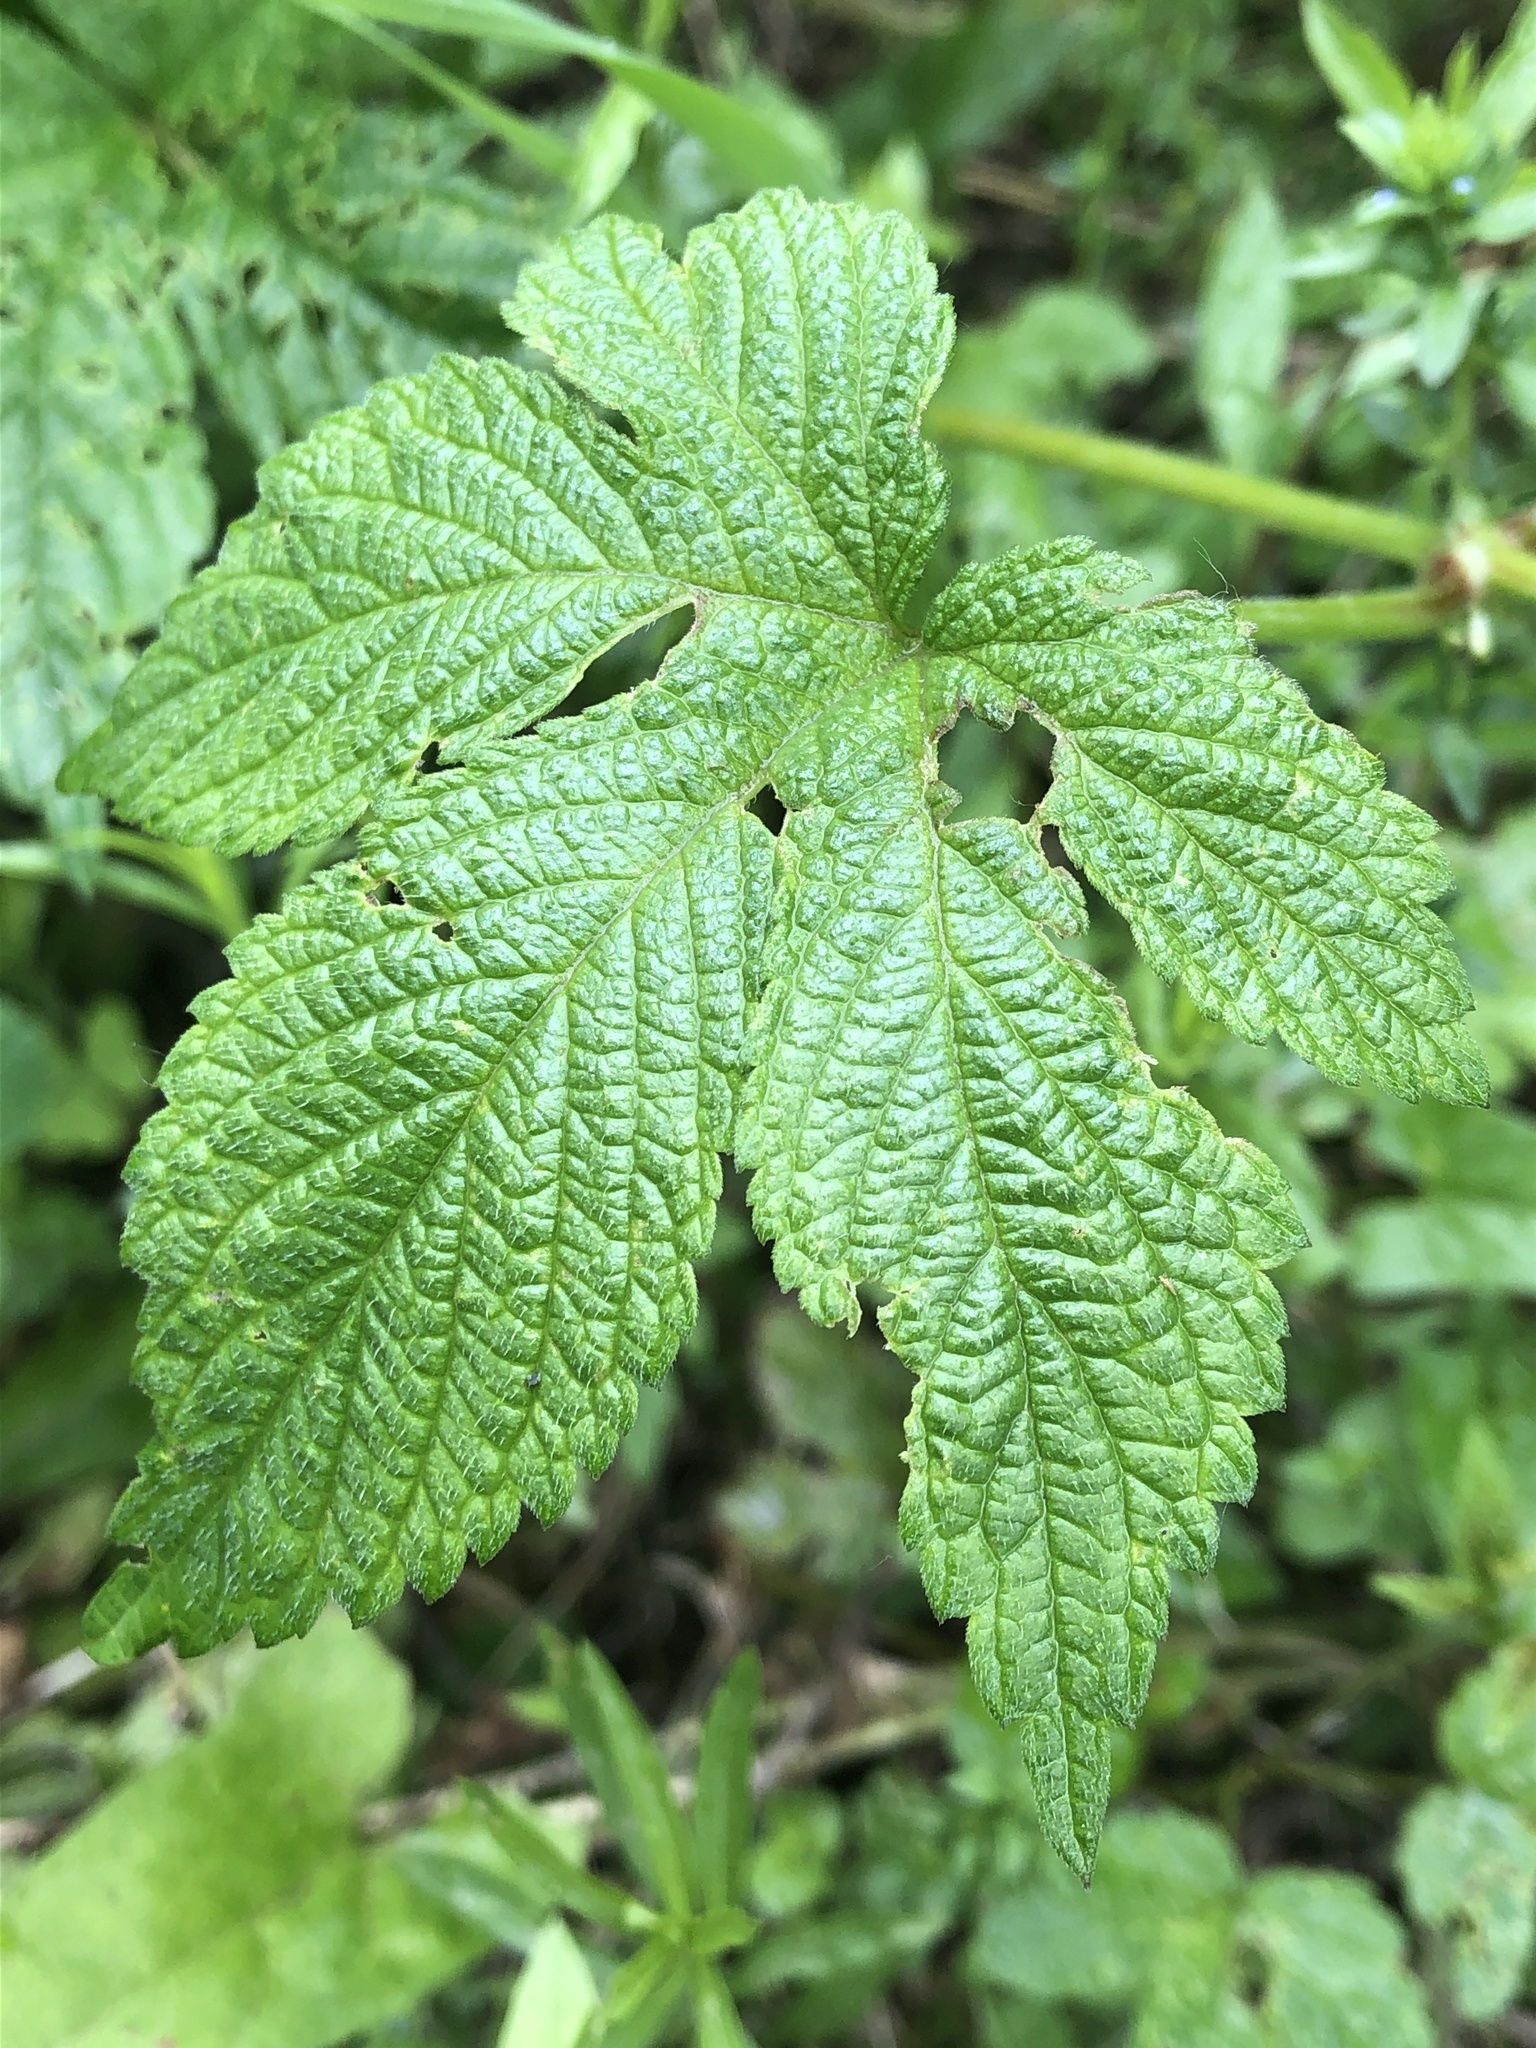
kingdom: Plantae
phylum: Tracheophyta
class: Magnoliopsida
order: Rosales
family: Cannabaceae
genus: Humulus
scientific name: Humulus scandens
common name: Japanese hop
